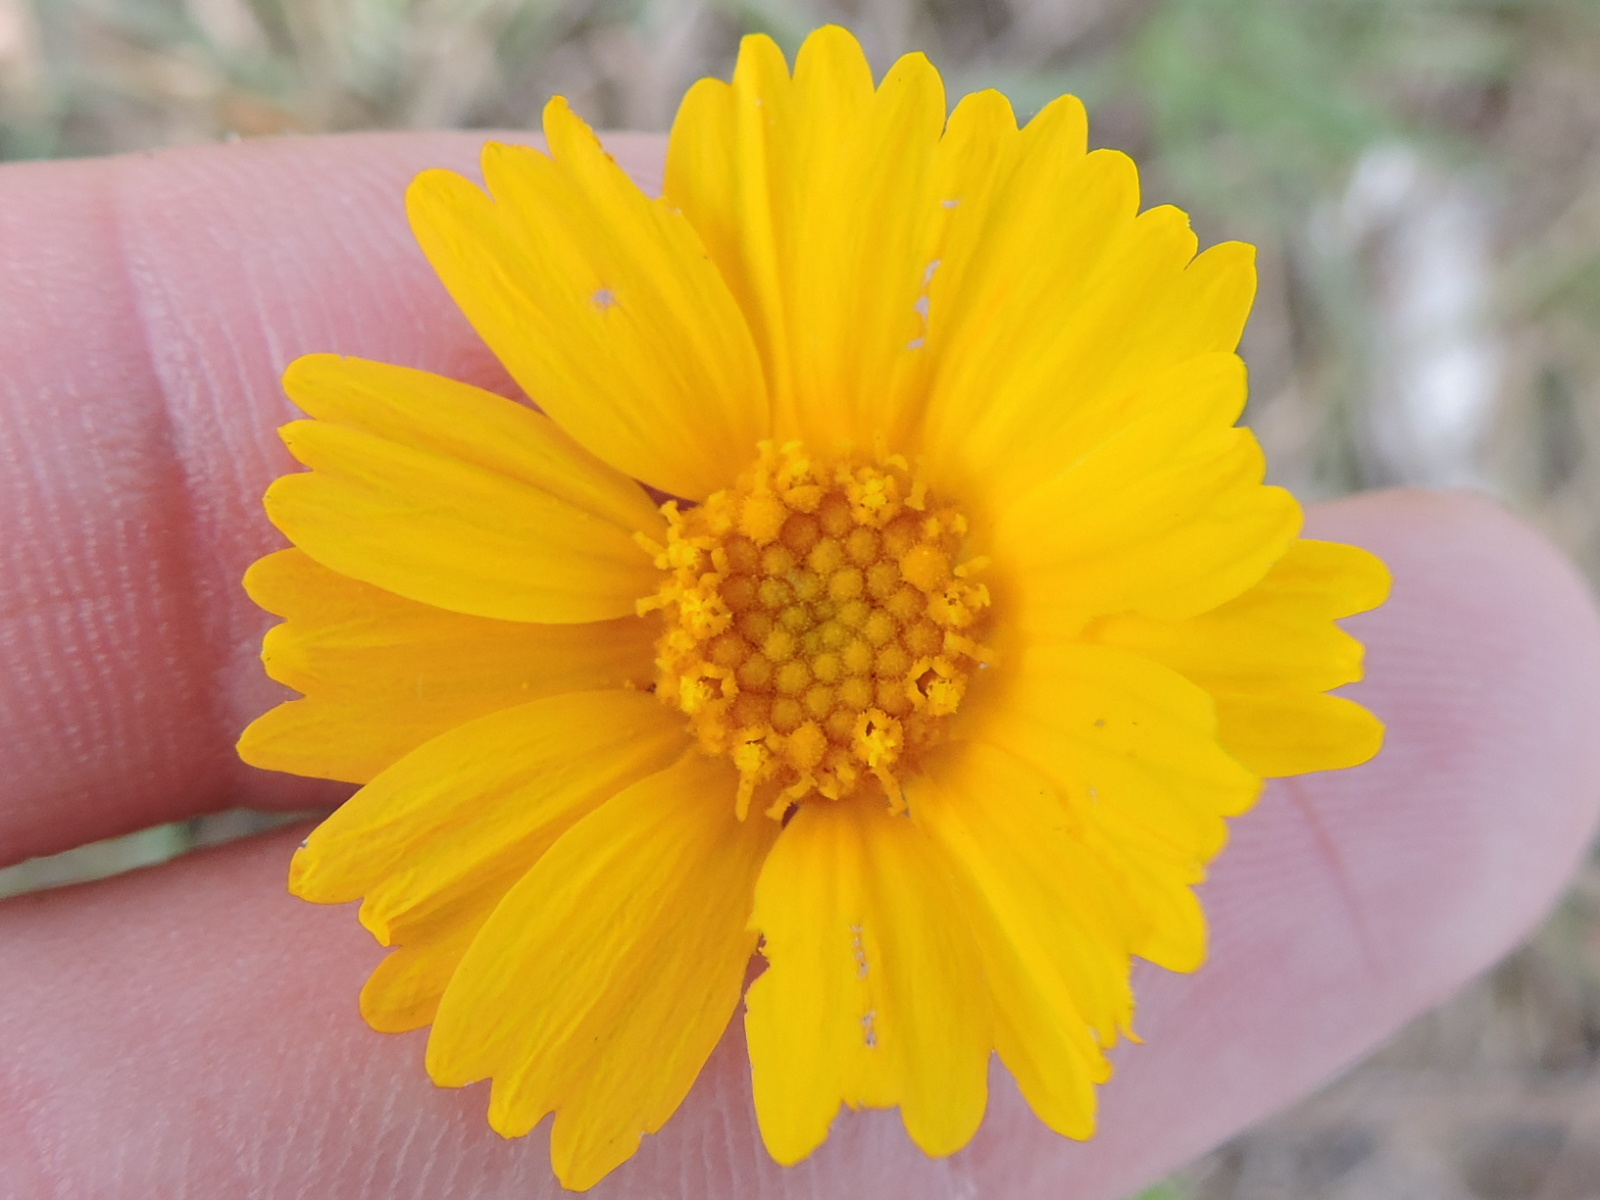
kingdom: Plantae
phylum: Tracheophyta
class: Magnoliopsida
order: Asterales
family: Asteraceae
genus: Tetraneuris
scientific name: Tetraneuris scaposa
